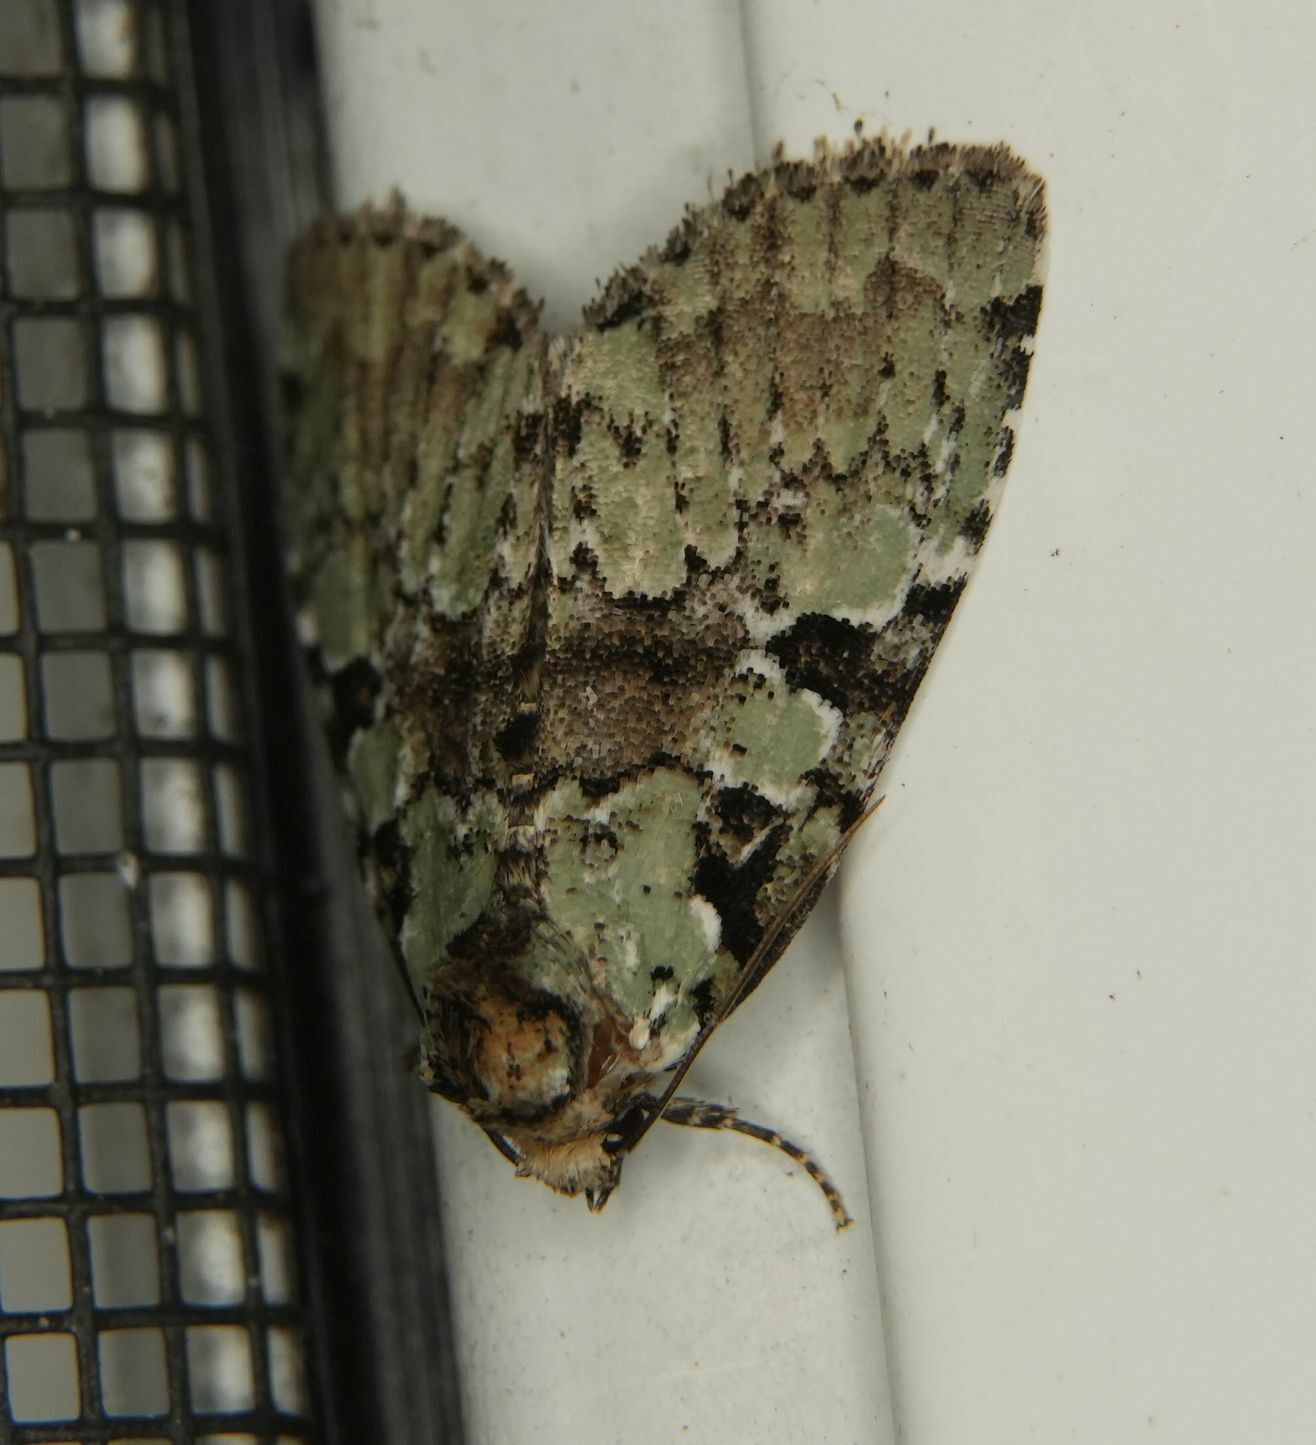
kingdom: Animalia
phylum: Arthropoda
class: Insecta
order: Lepidoptera
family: Noctuidae
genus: Leuconycta
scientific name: Leuconycta lepidula
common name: Marbled-green leuconycta moth
